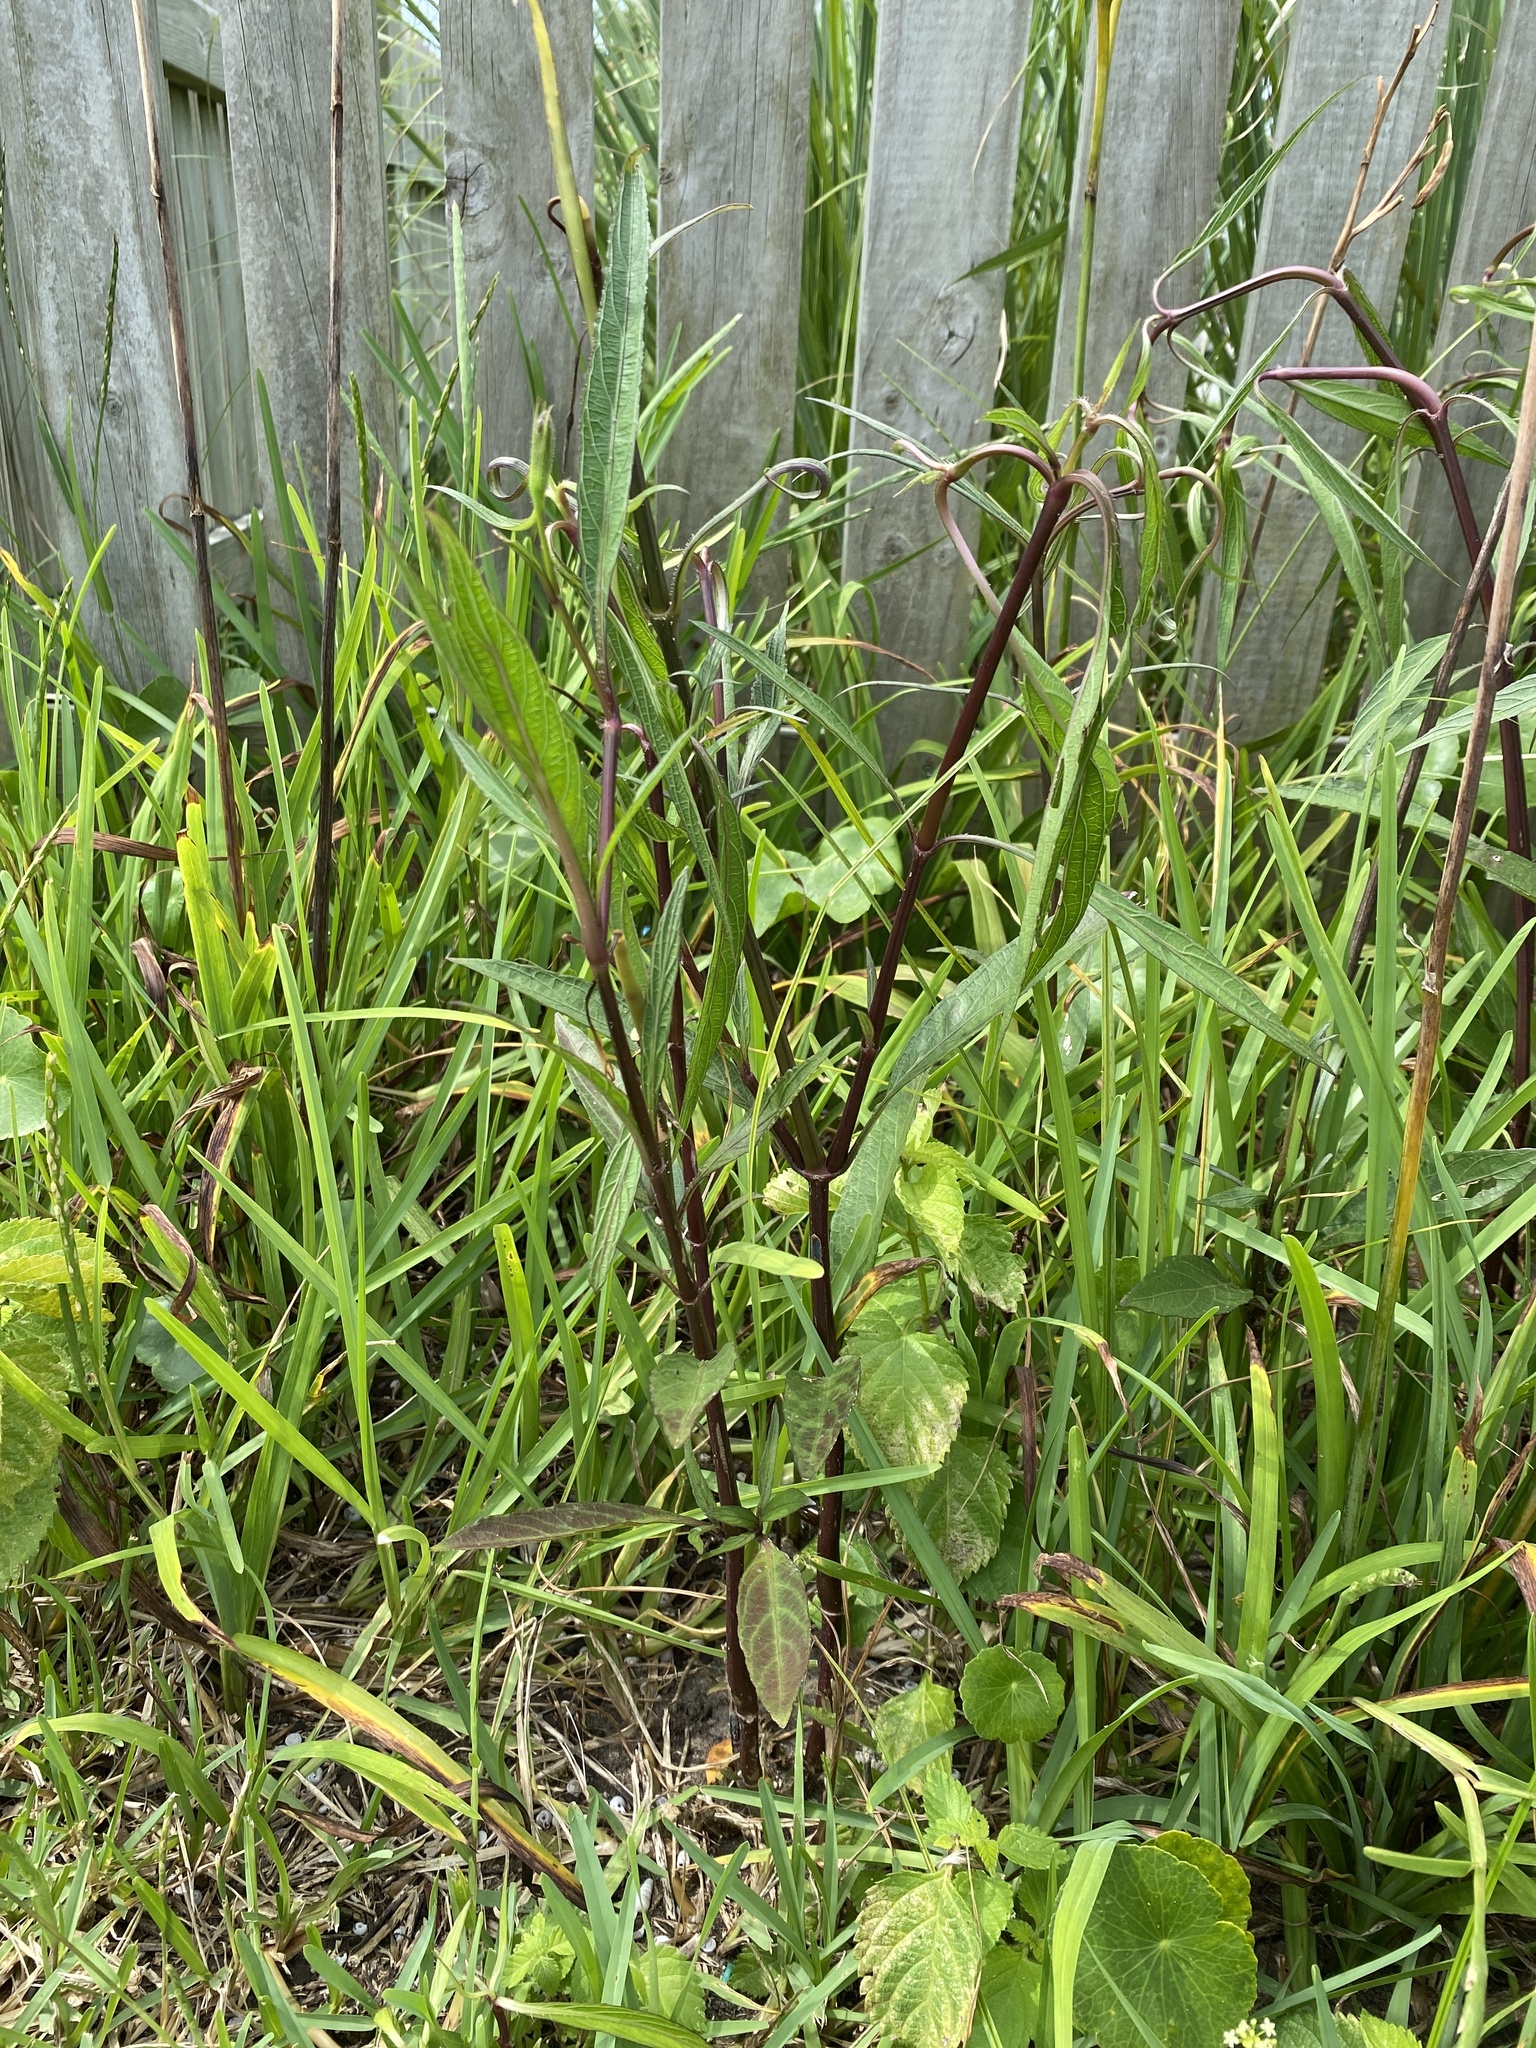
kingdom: Plantae
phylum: Tracheophyta
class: Magnoliopsida
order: Lamiales
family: Acanthaceae
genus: Ruellia
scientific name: Ruellia simplex
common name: Softseed wild petunia
